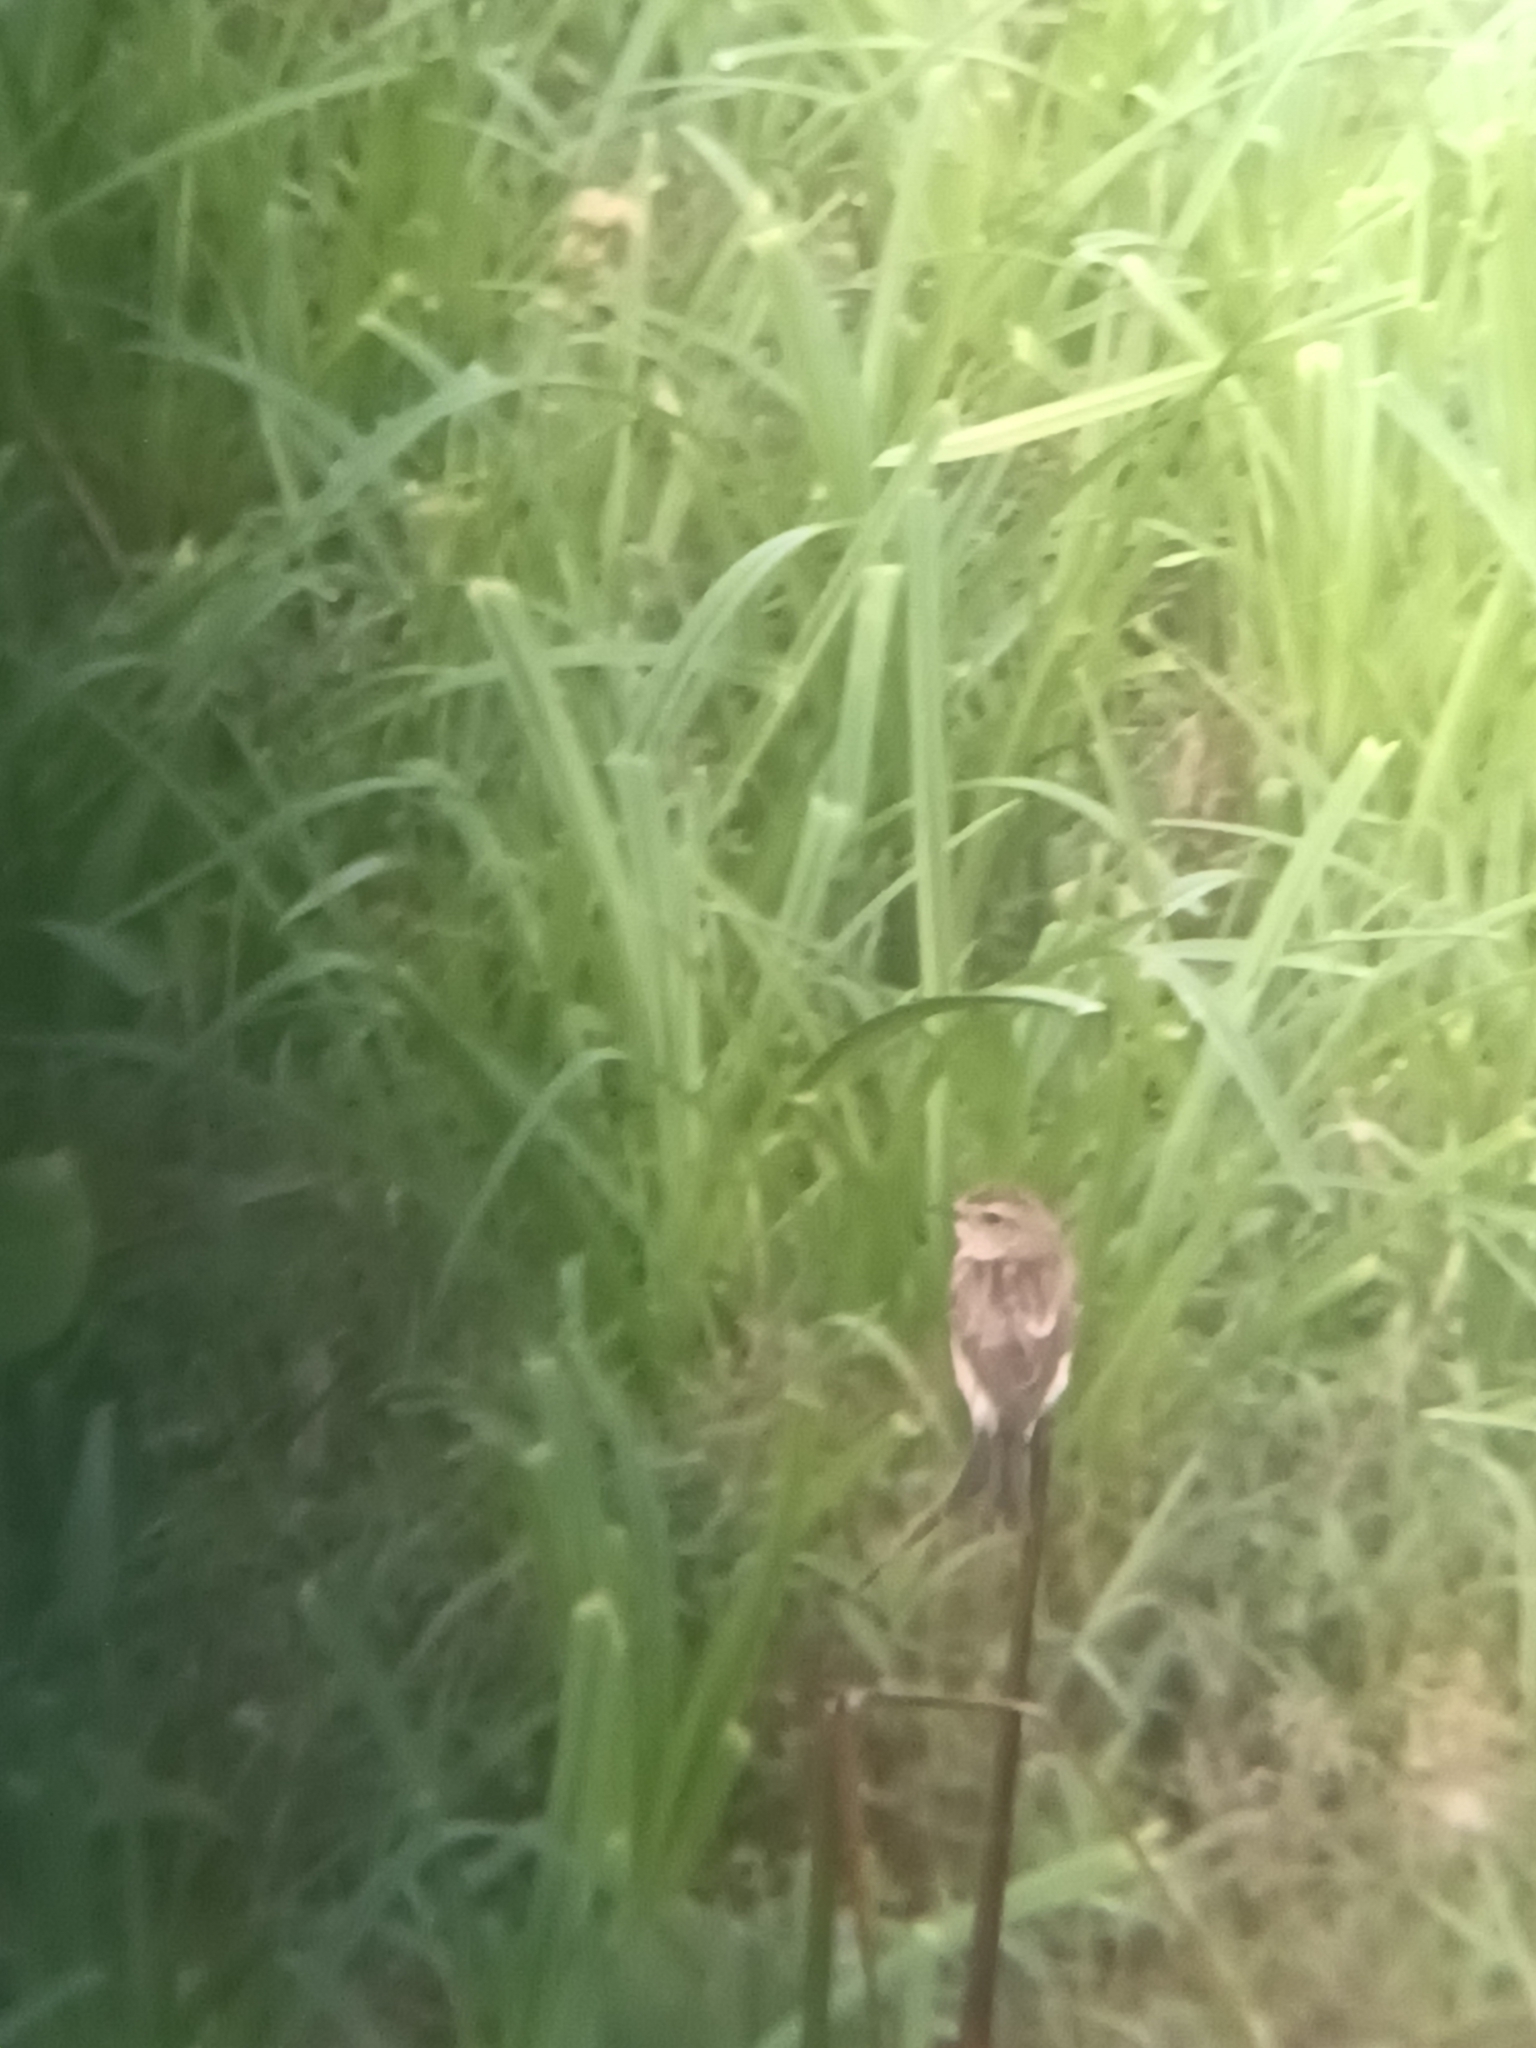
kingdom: Animalia
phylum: Chordata
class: Aves
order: Passeriformes
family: Muscicapidae
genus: Saxicola
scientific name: Saxicola maurus
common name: Siberian stonechat
